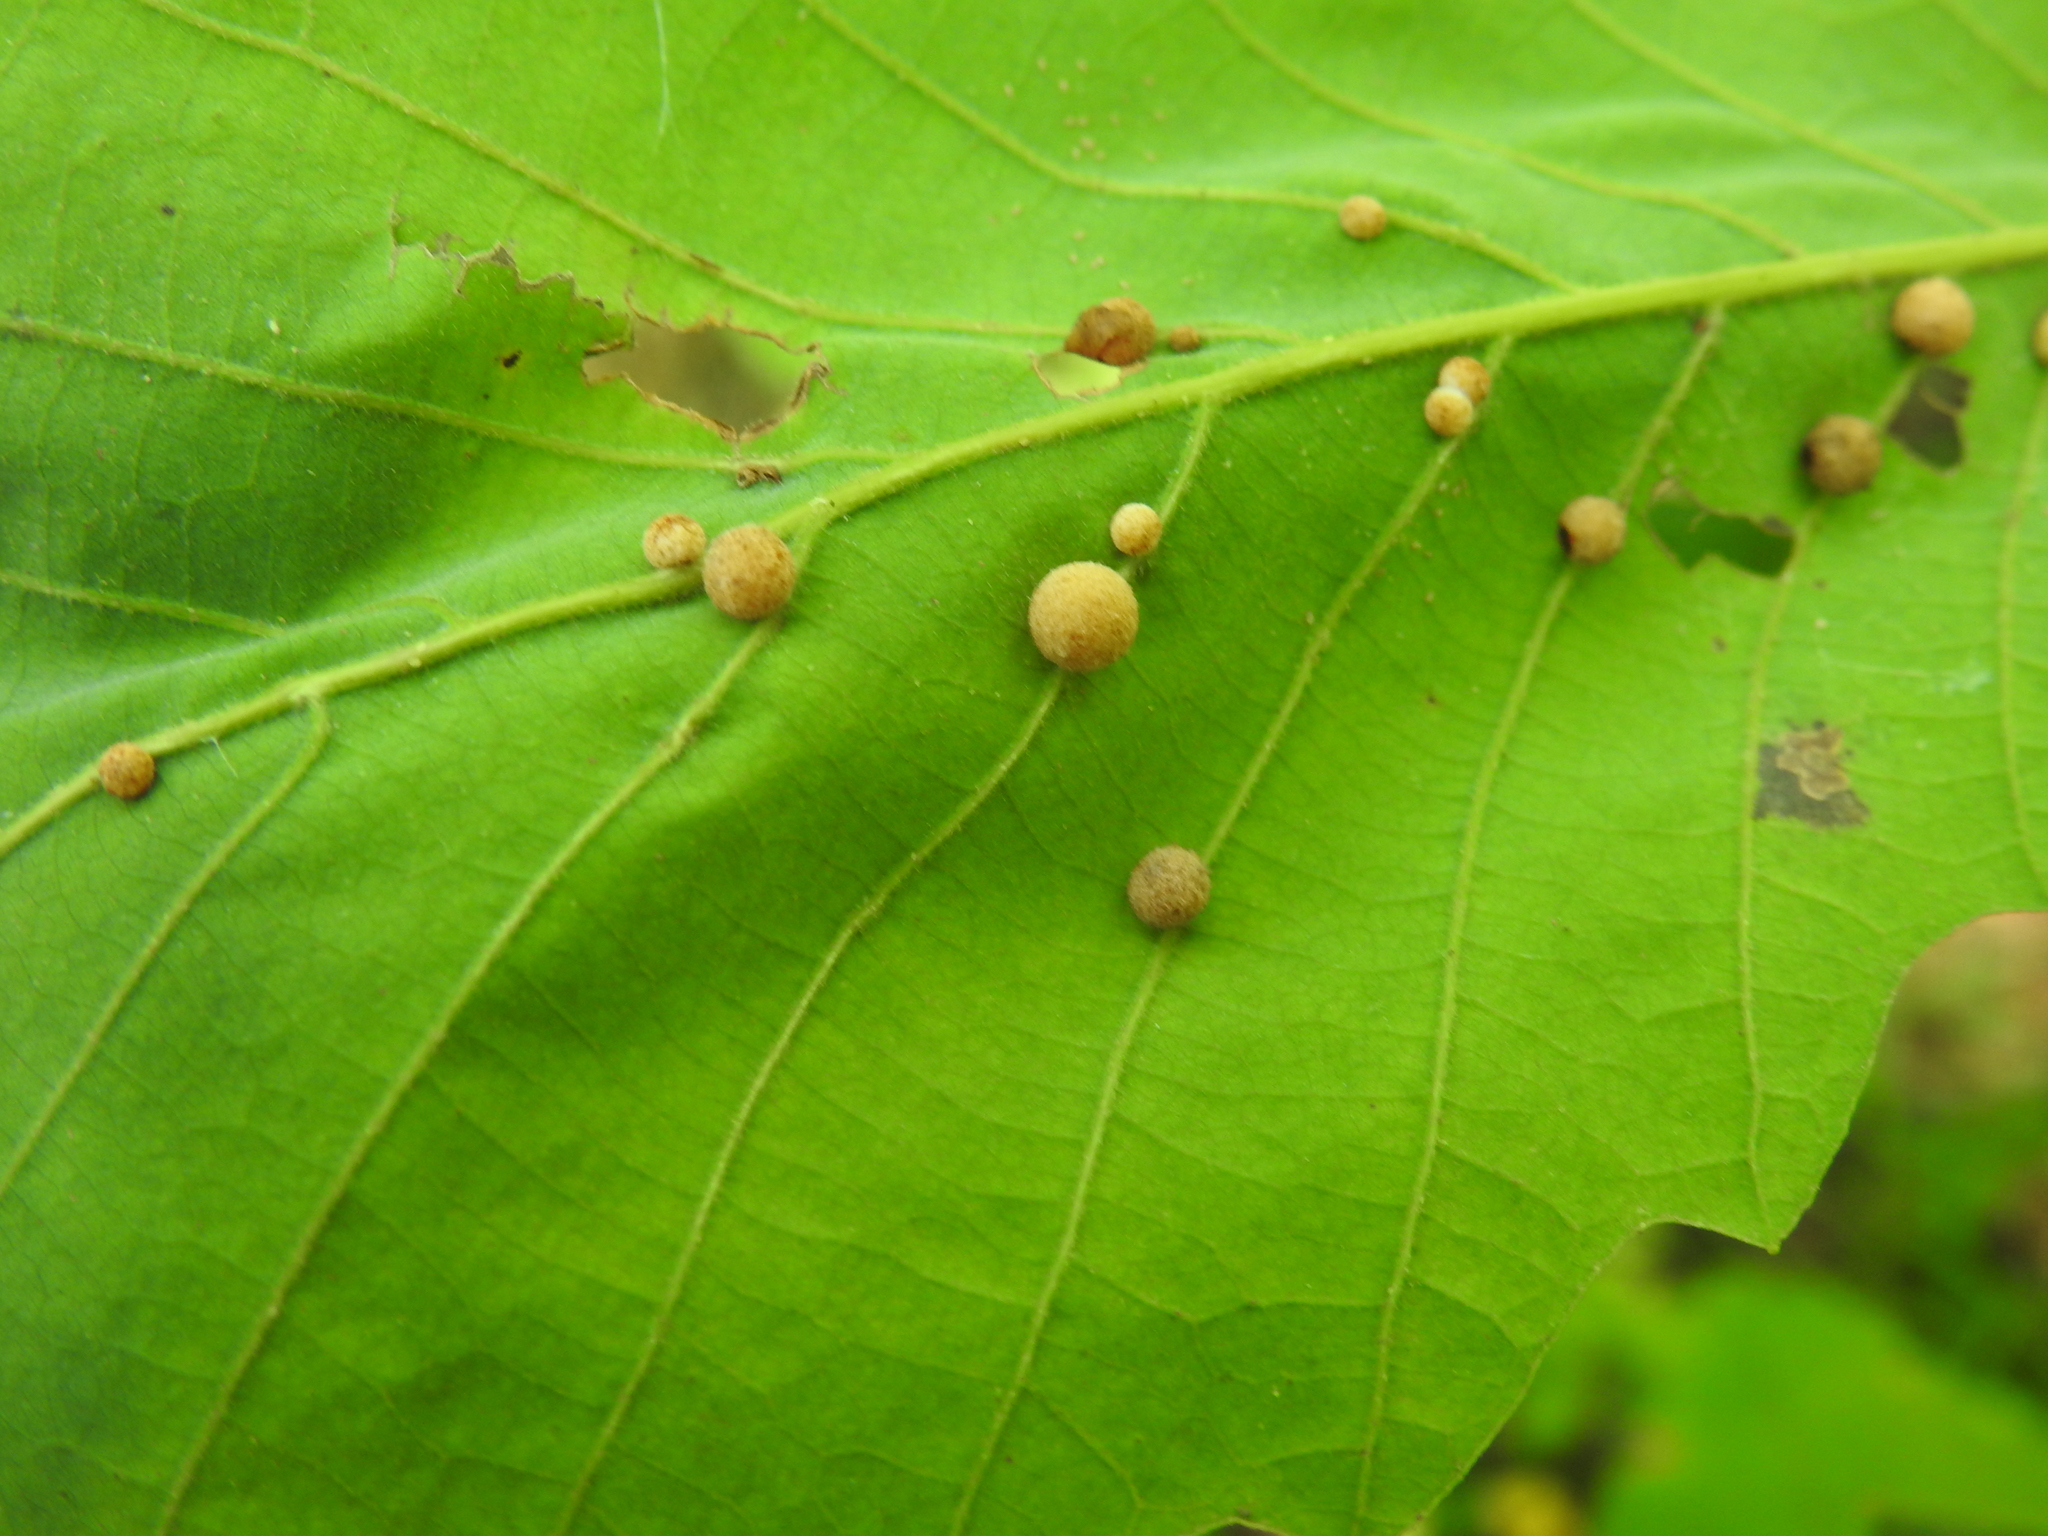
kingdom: Animalia
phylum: Arthropoda
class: Insecta
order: Hymenoptera
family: Cynipidae
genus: Philonix
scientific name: Philonix fulvicollis
